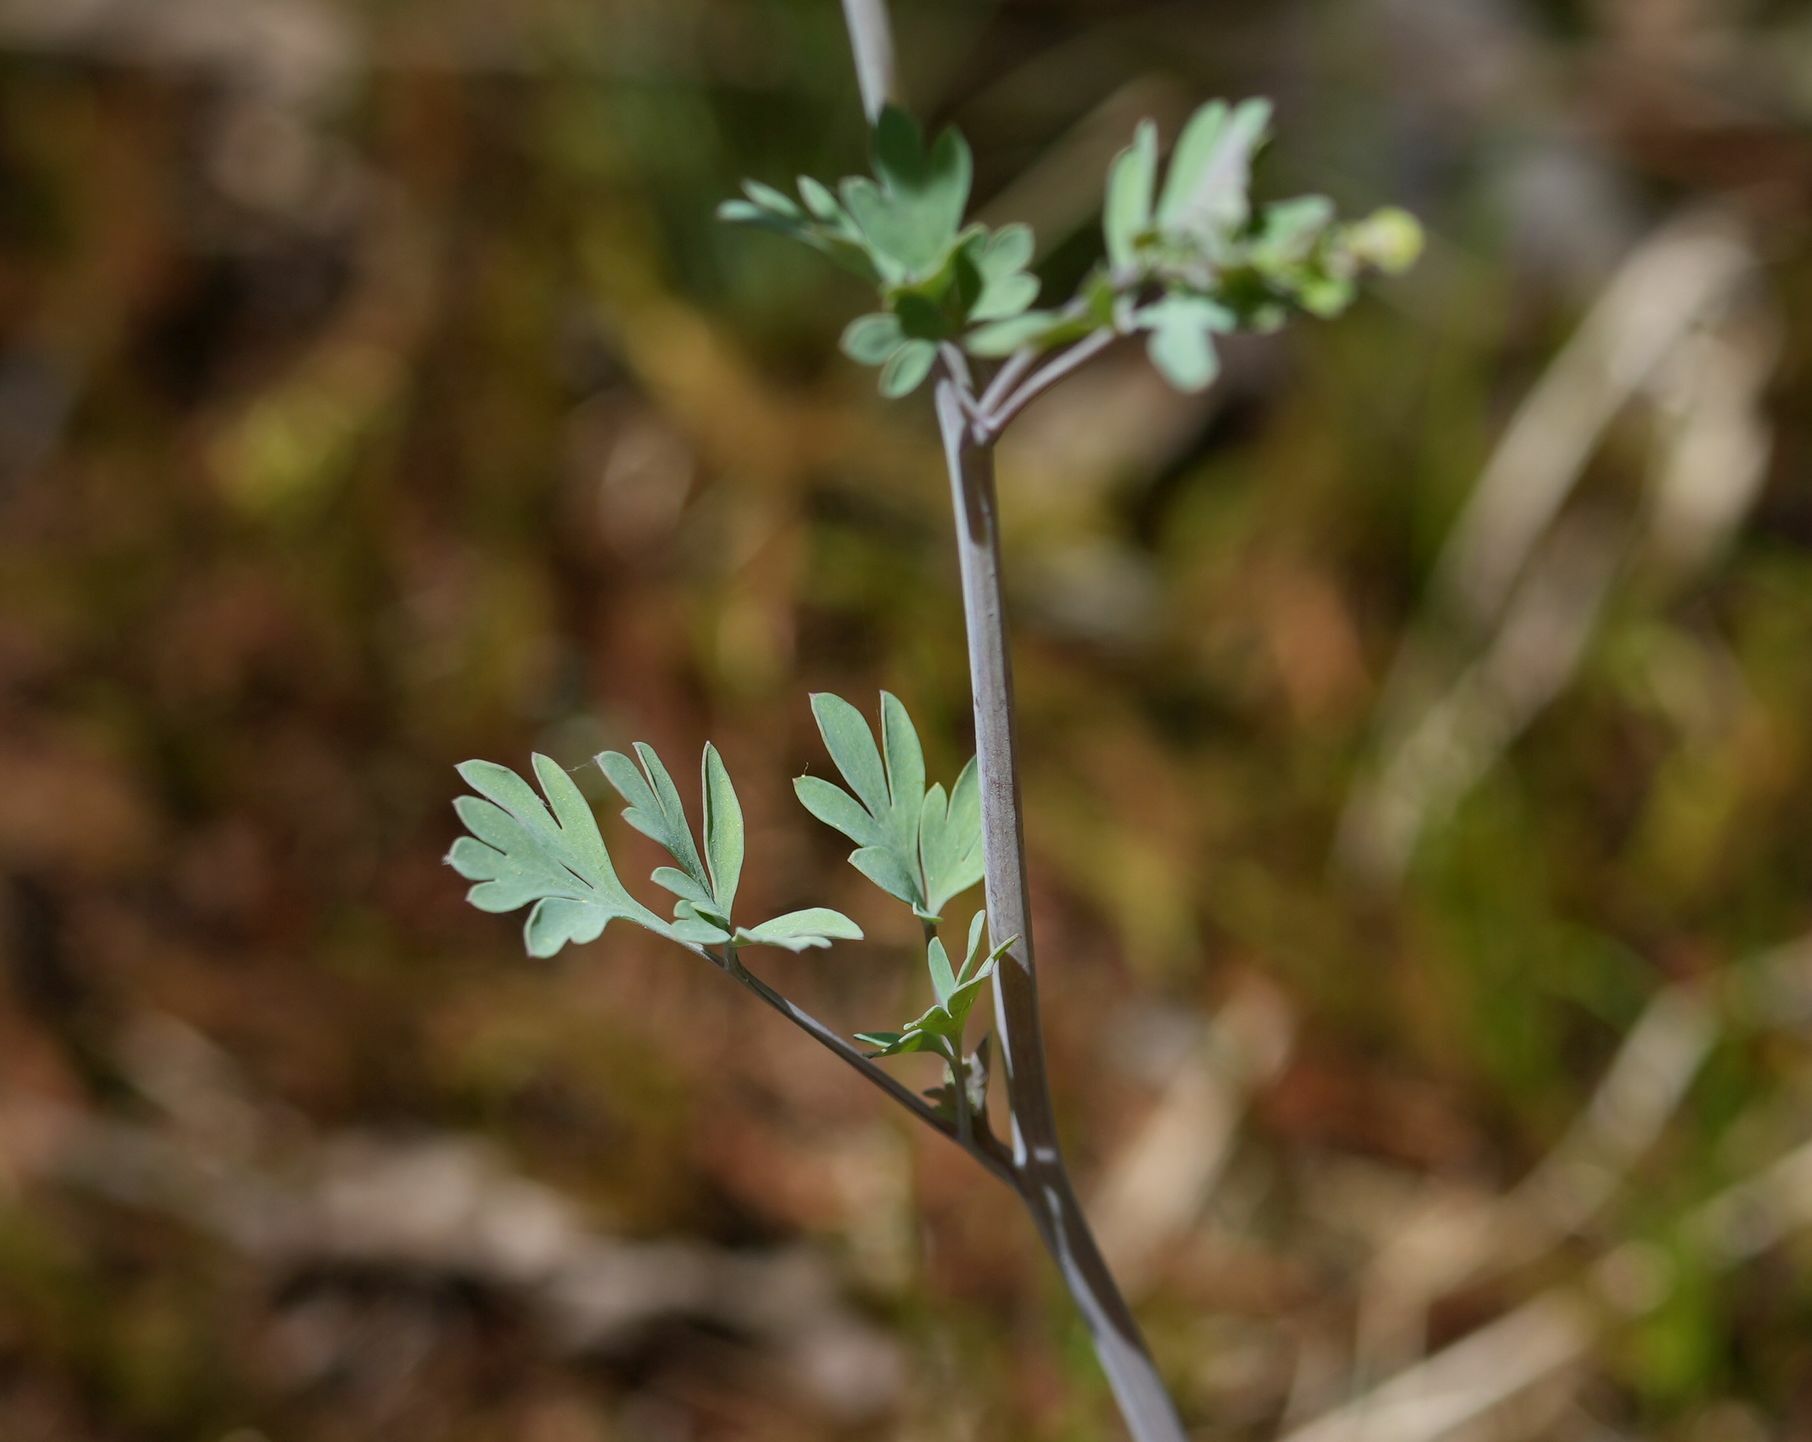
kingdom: Plantae
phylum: Tracheophyta
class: Magnoliopsida
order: Ranunculales
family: Papaveraceae
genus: Capnoides
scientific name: Capnoides sempervirens
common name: Rock harlequin
